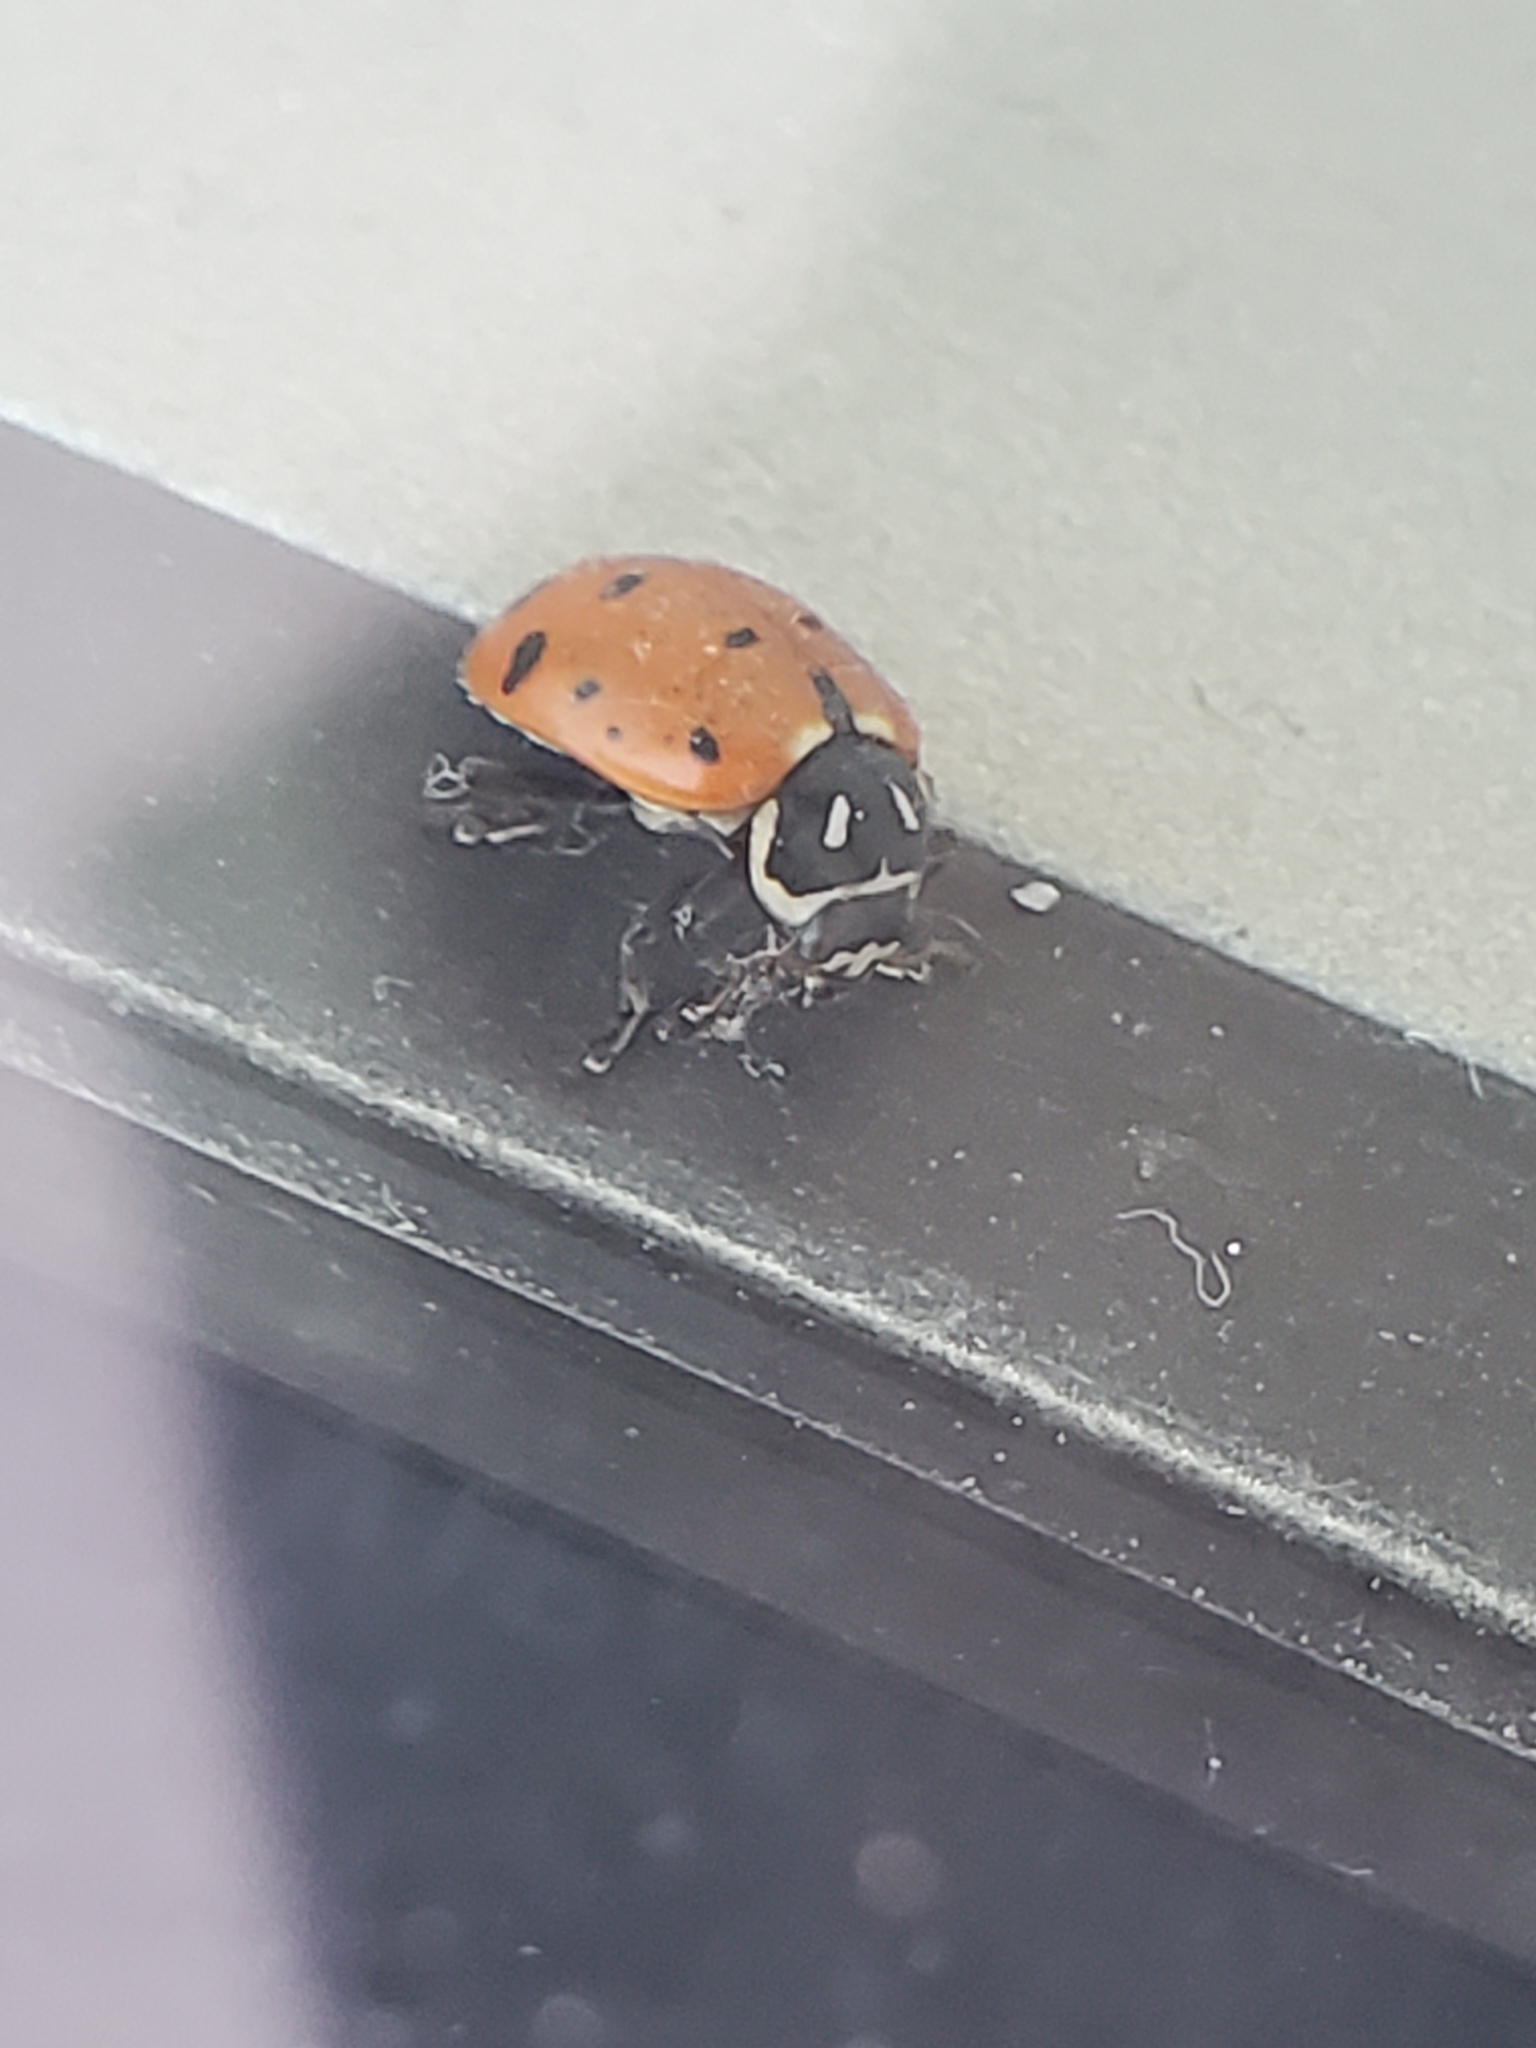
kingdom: Animalia
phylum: Arthropoda
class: Insecta
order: Coleoptera
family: Coccinellidae
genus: Hippodamia
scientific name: Hippodamia convergens
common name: Convergent lady beetle
